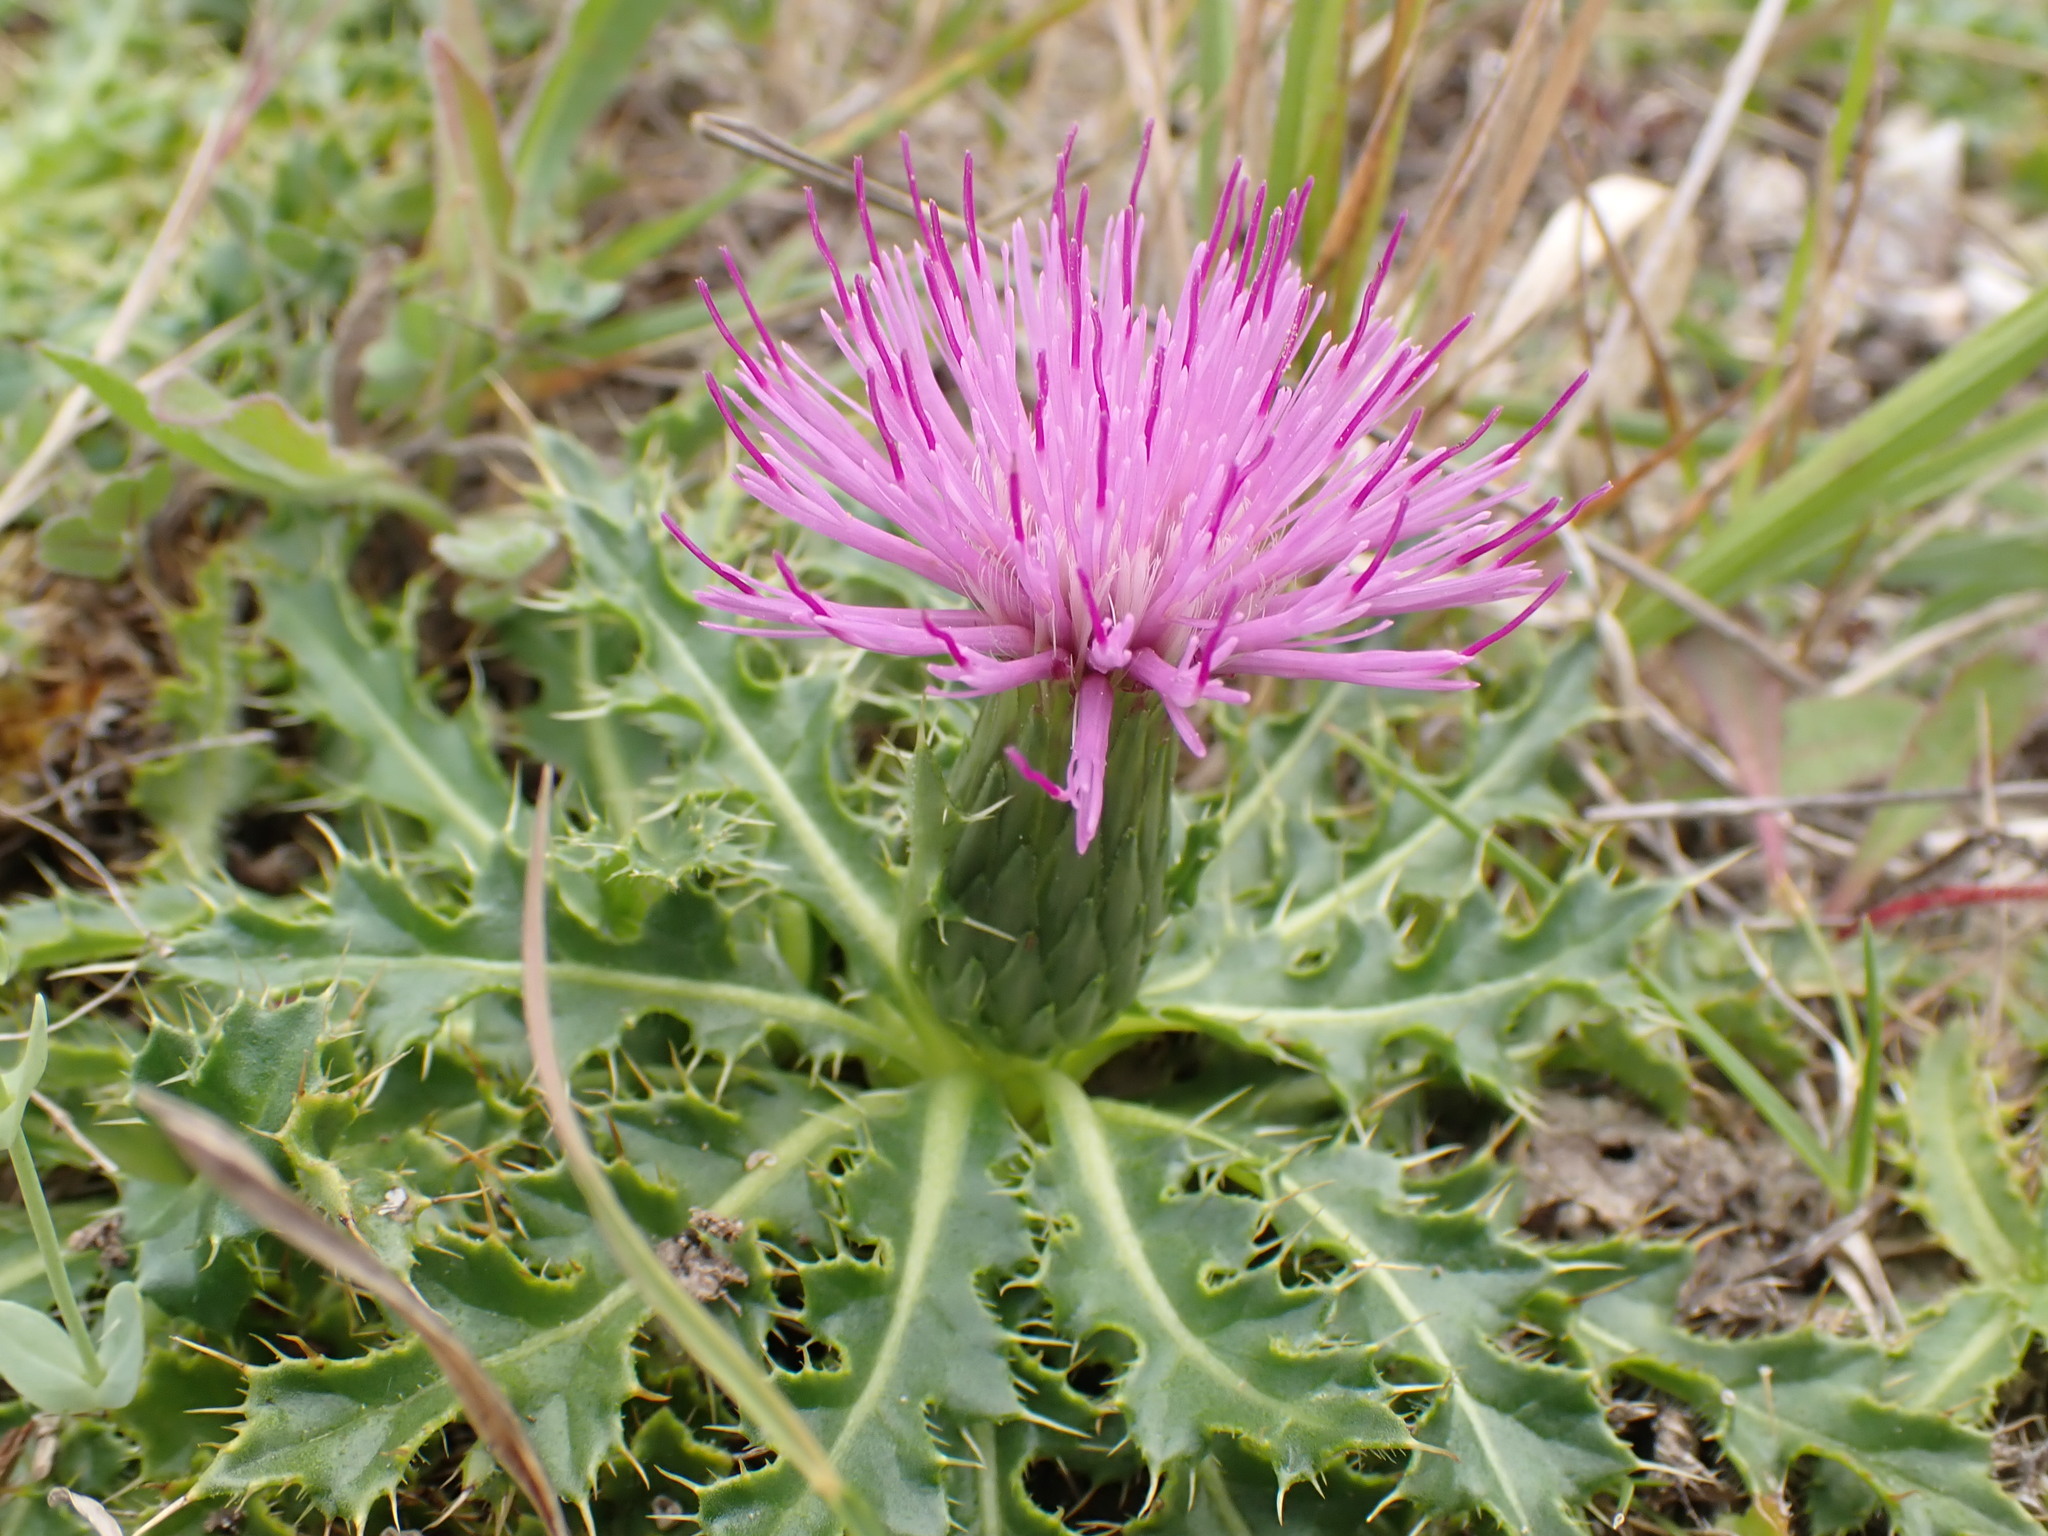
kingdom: Plantae
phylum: Tracheophyta
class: Magnoliopsida
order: Asterales
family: Asteraceae
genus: Cirsium
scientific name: Cirsium acaulon
